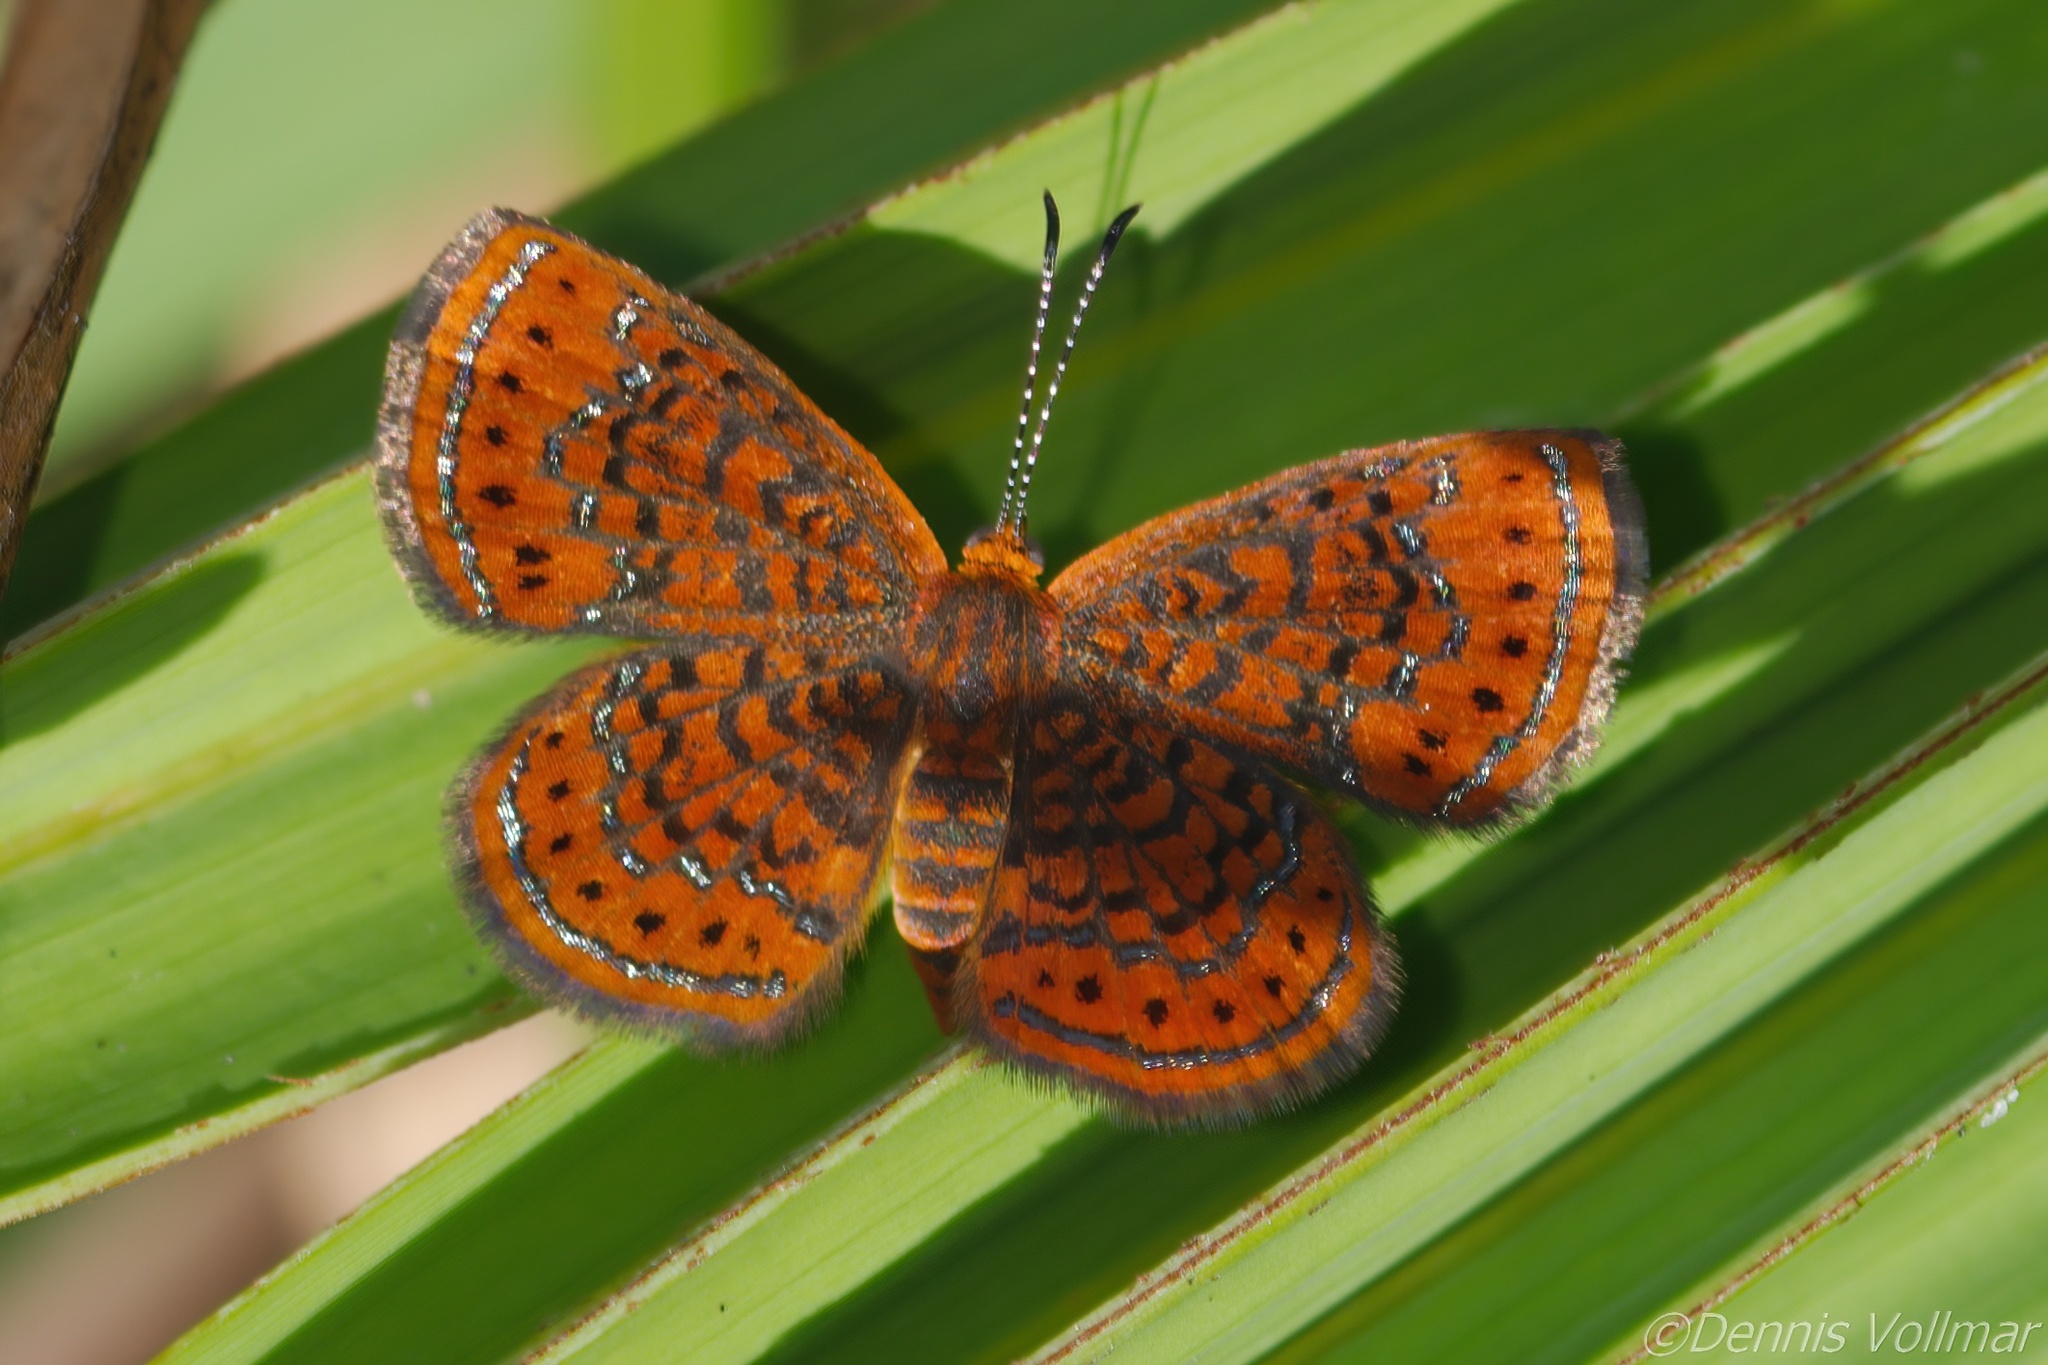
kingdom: Animalia
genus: Calephelis
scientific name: Calephelis virginiensis
